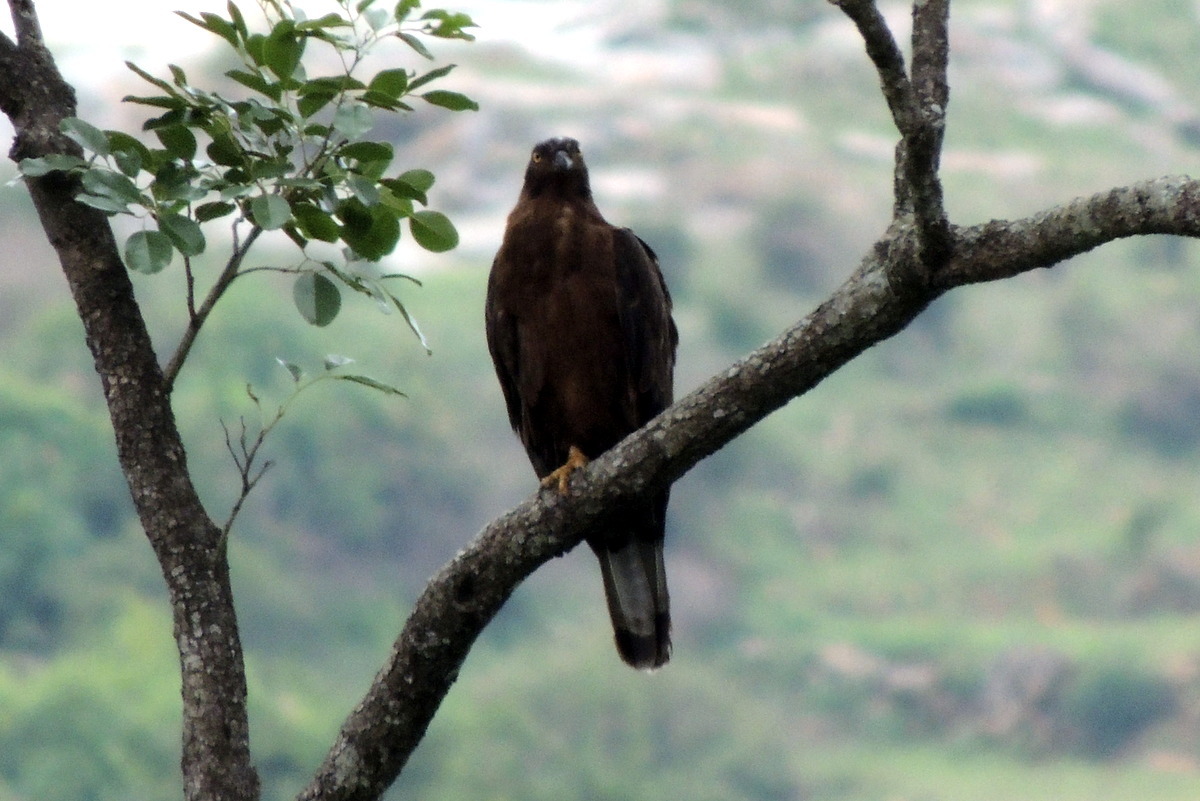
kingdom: Animalia
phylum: Chordata
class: Aves
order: Accipitriformes
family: Accipitridae
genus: Pernis
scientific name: Pernis ptilorhynchus
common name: Crested honey buzzard
